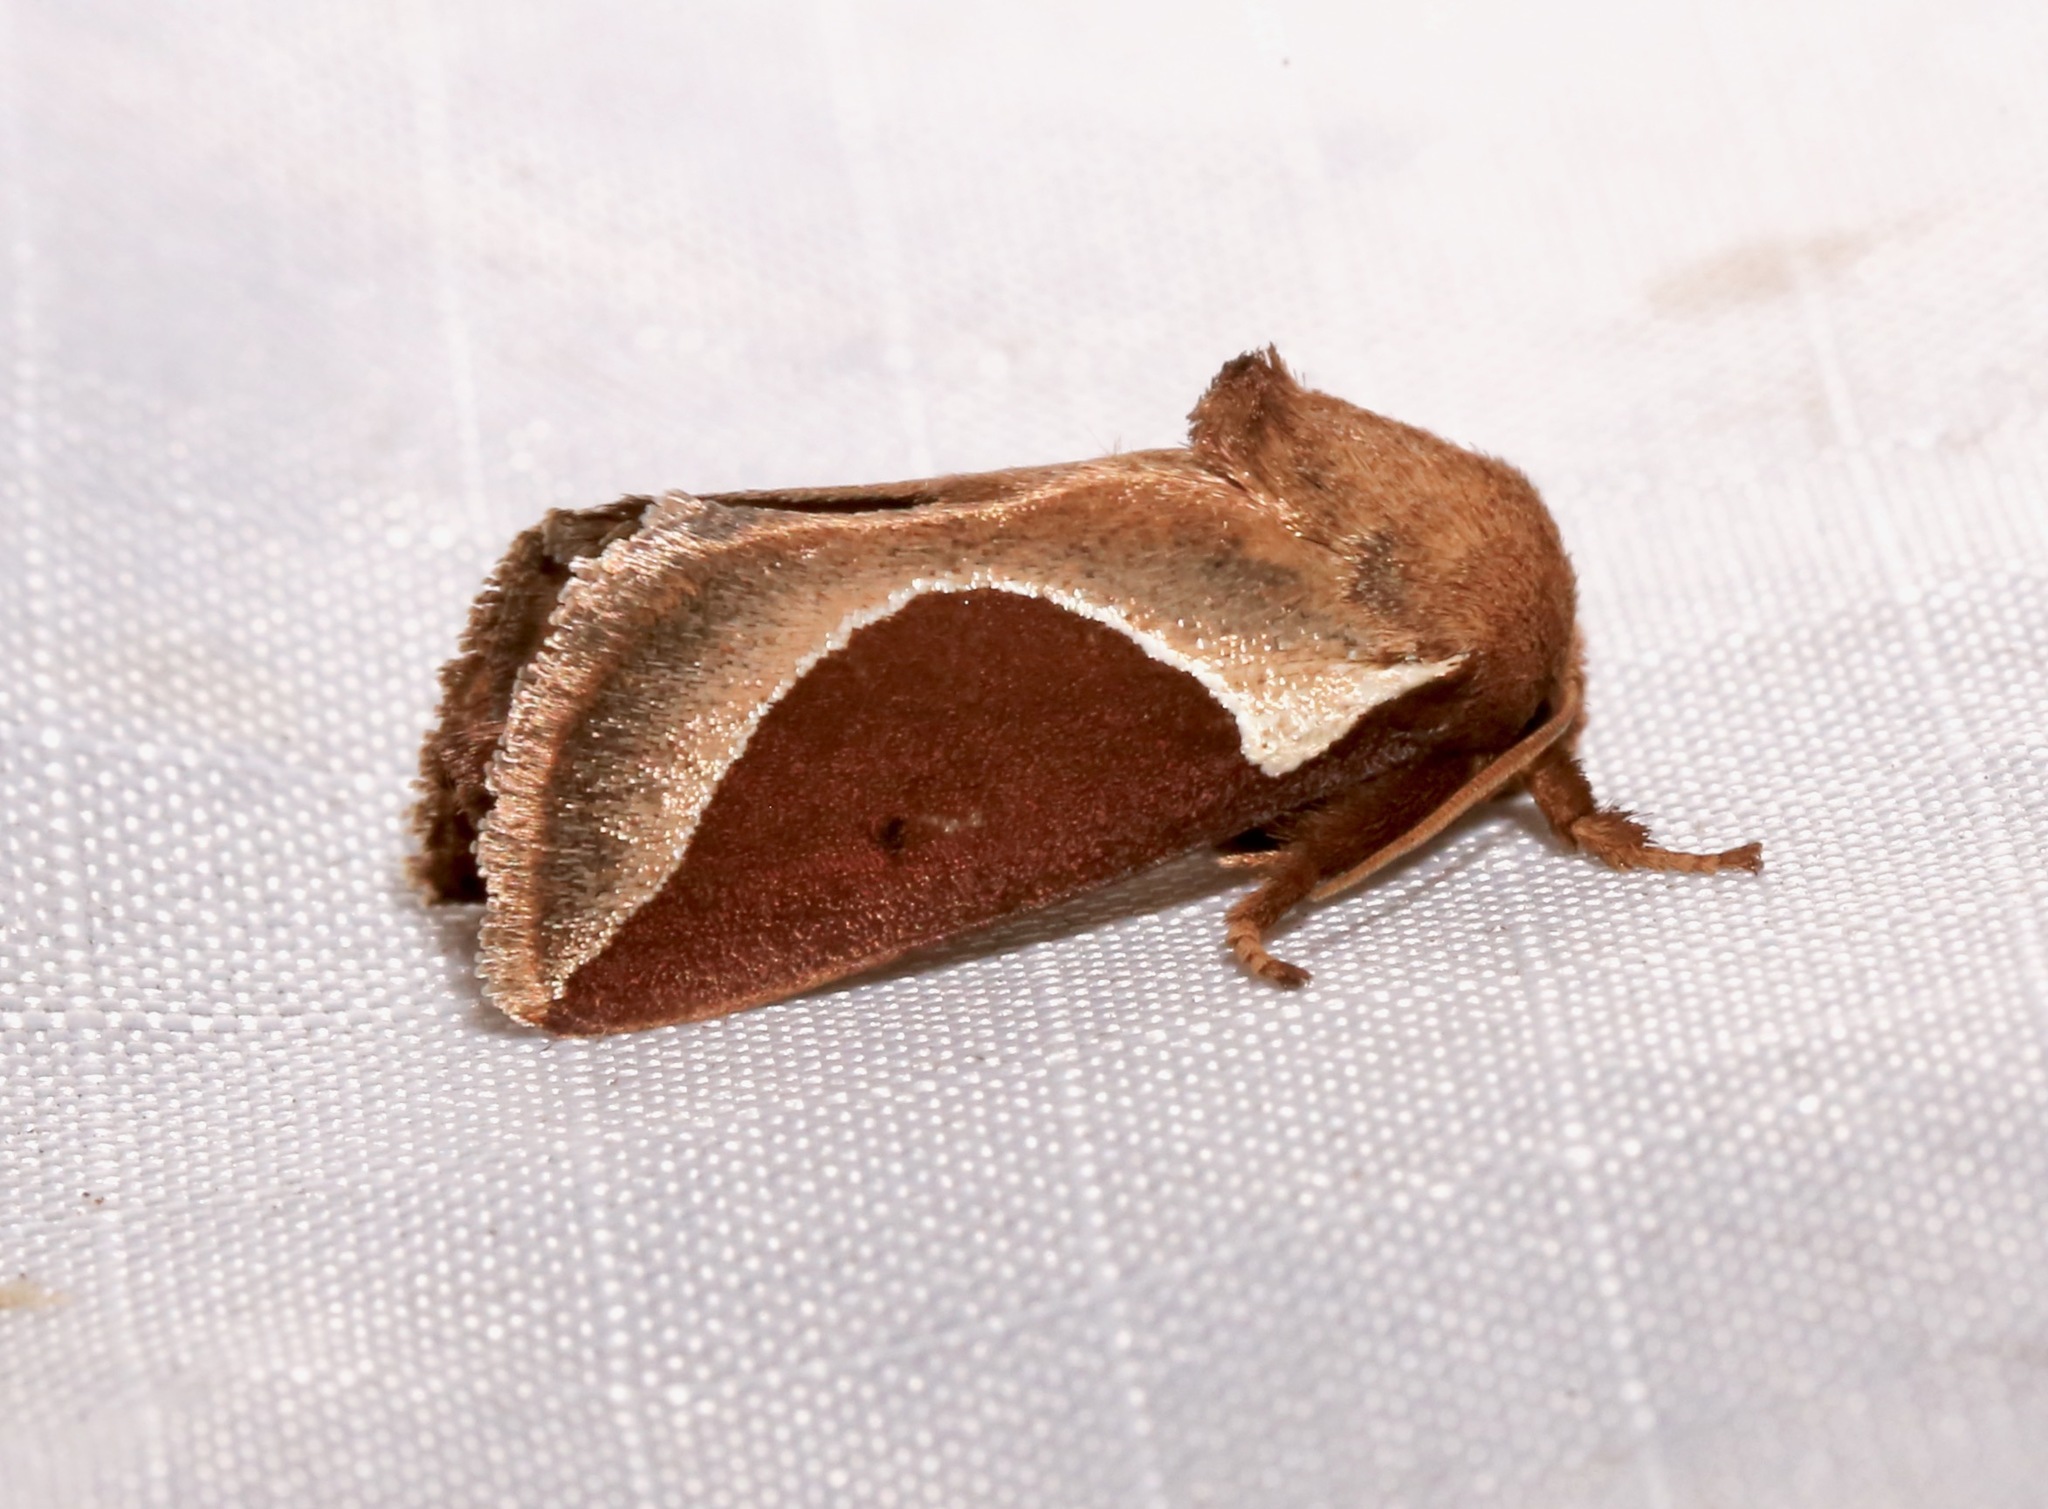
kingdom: Animalia
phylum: Arthropoda
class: Insecta
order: Lepidoptera
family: Limacodidae
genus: Prolimacodes
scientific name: Prolimacodes badia
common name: Skiff moth
